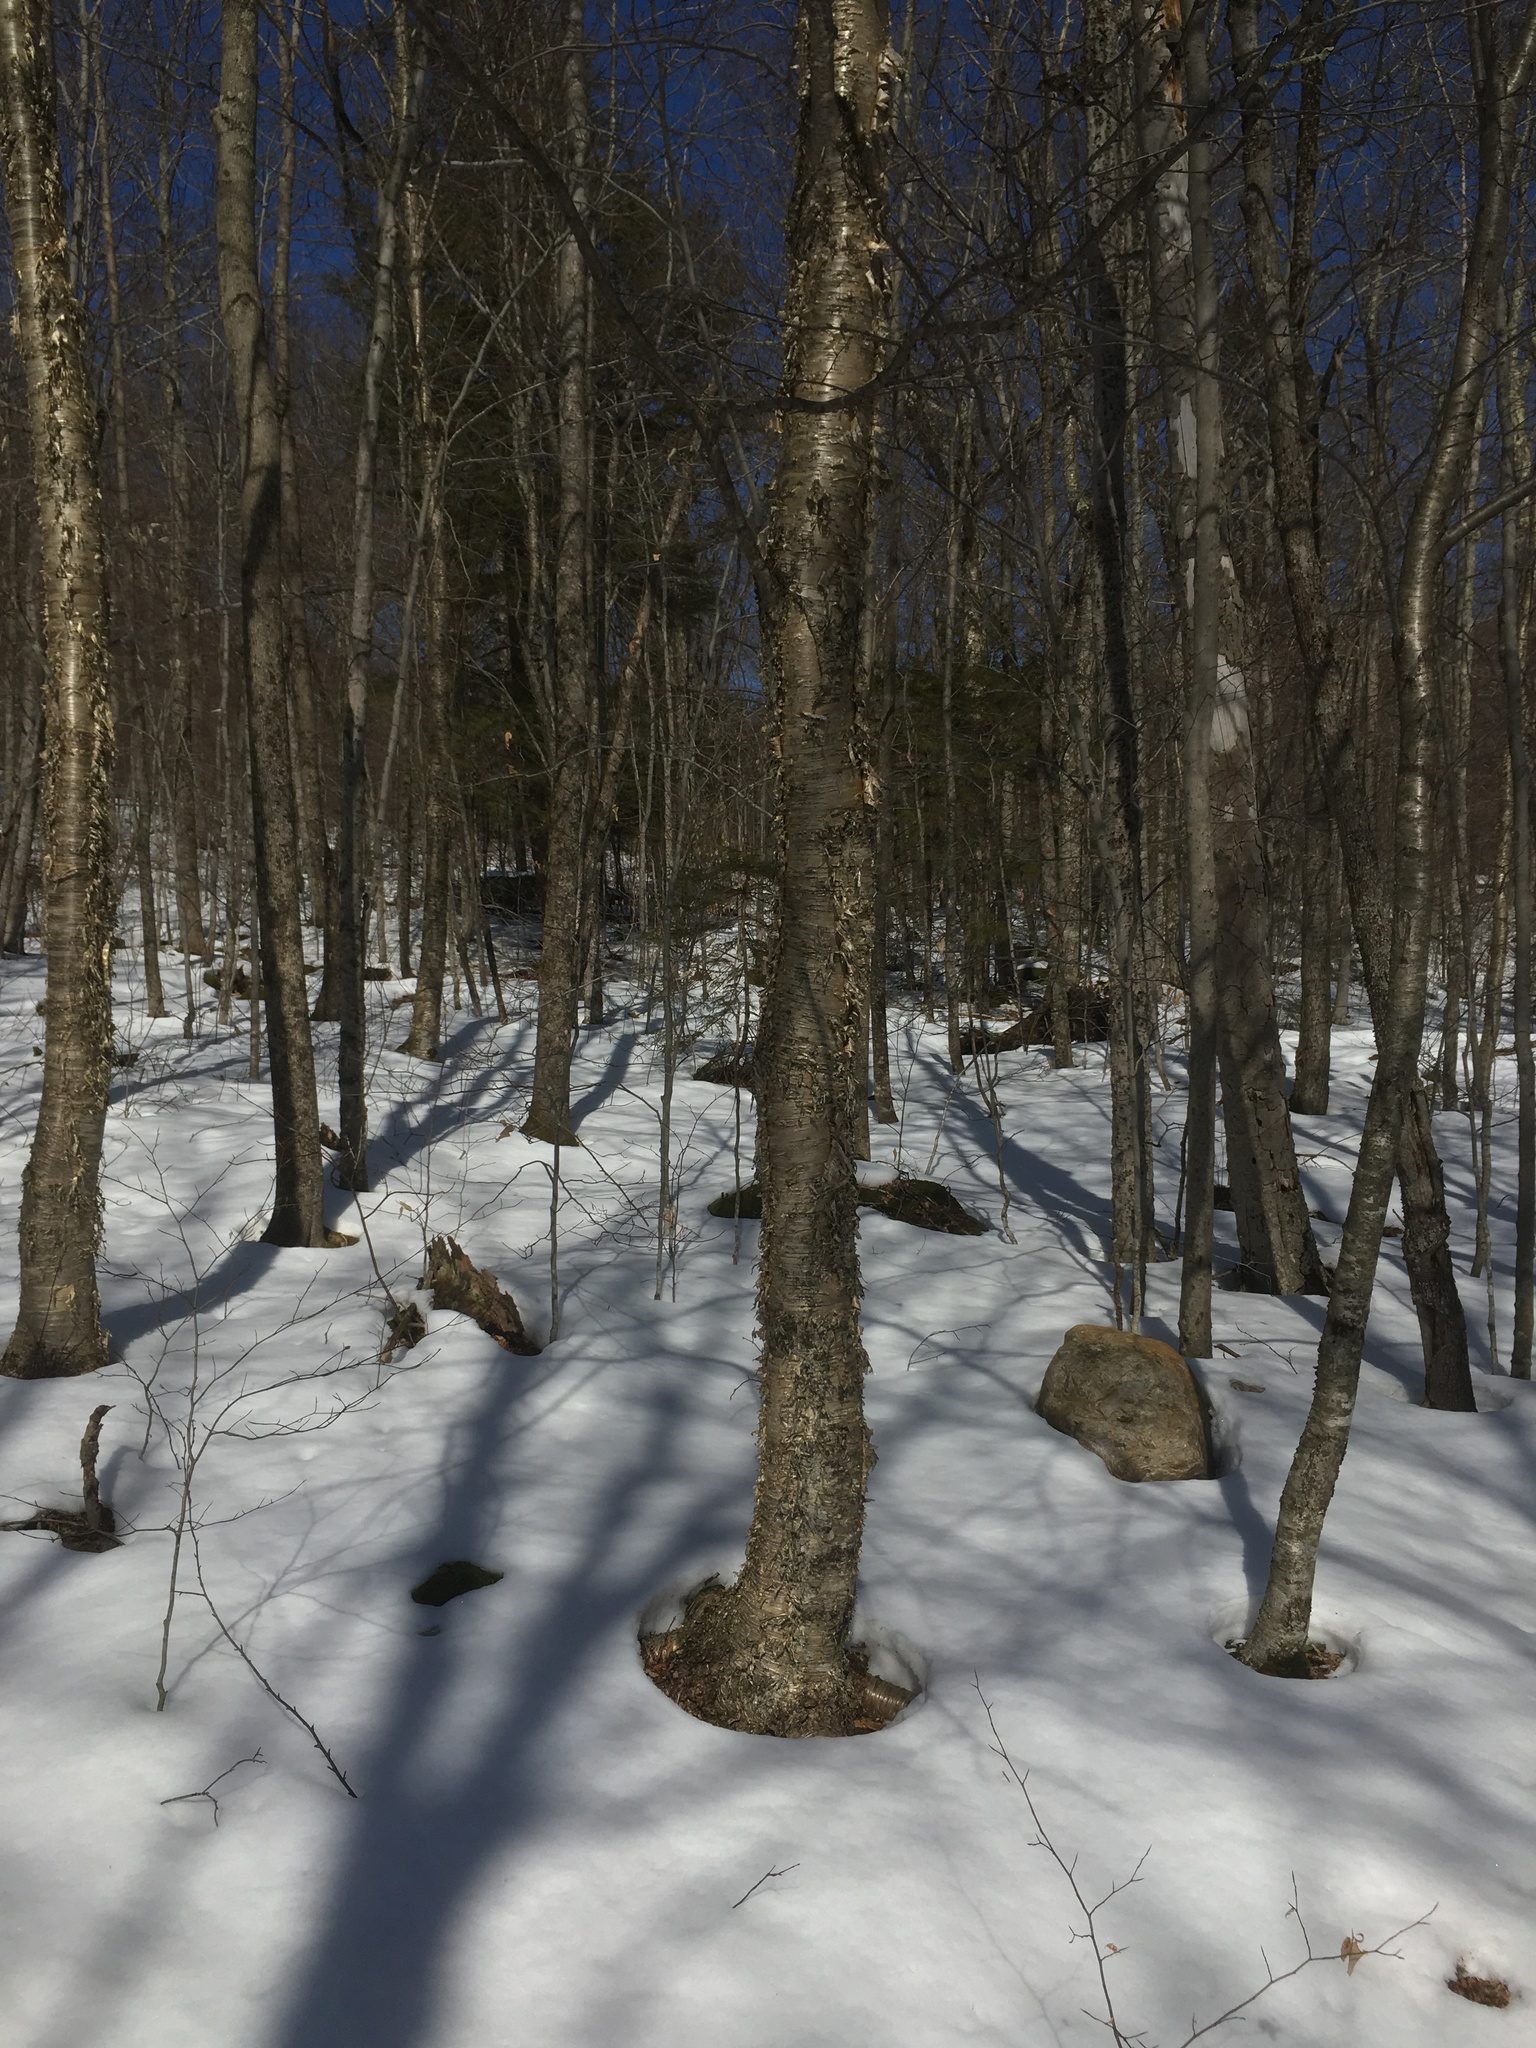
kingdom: Plantae
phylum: Tracheophyta
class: Magnoliopsida
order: Fagales
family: Betulaceae
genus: Betula
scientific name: Betula alleghaniensis
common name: Yellow birch
